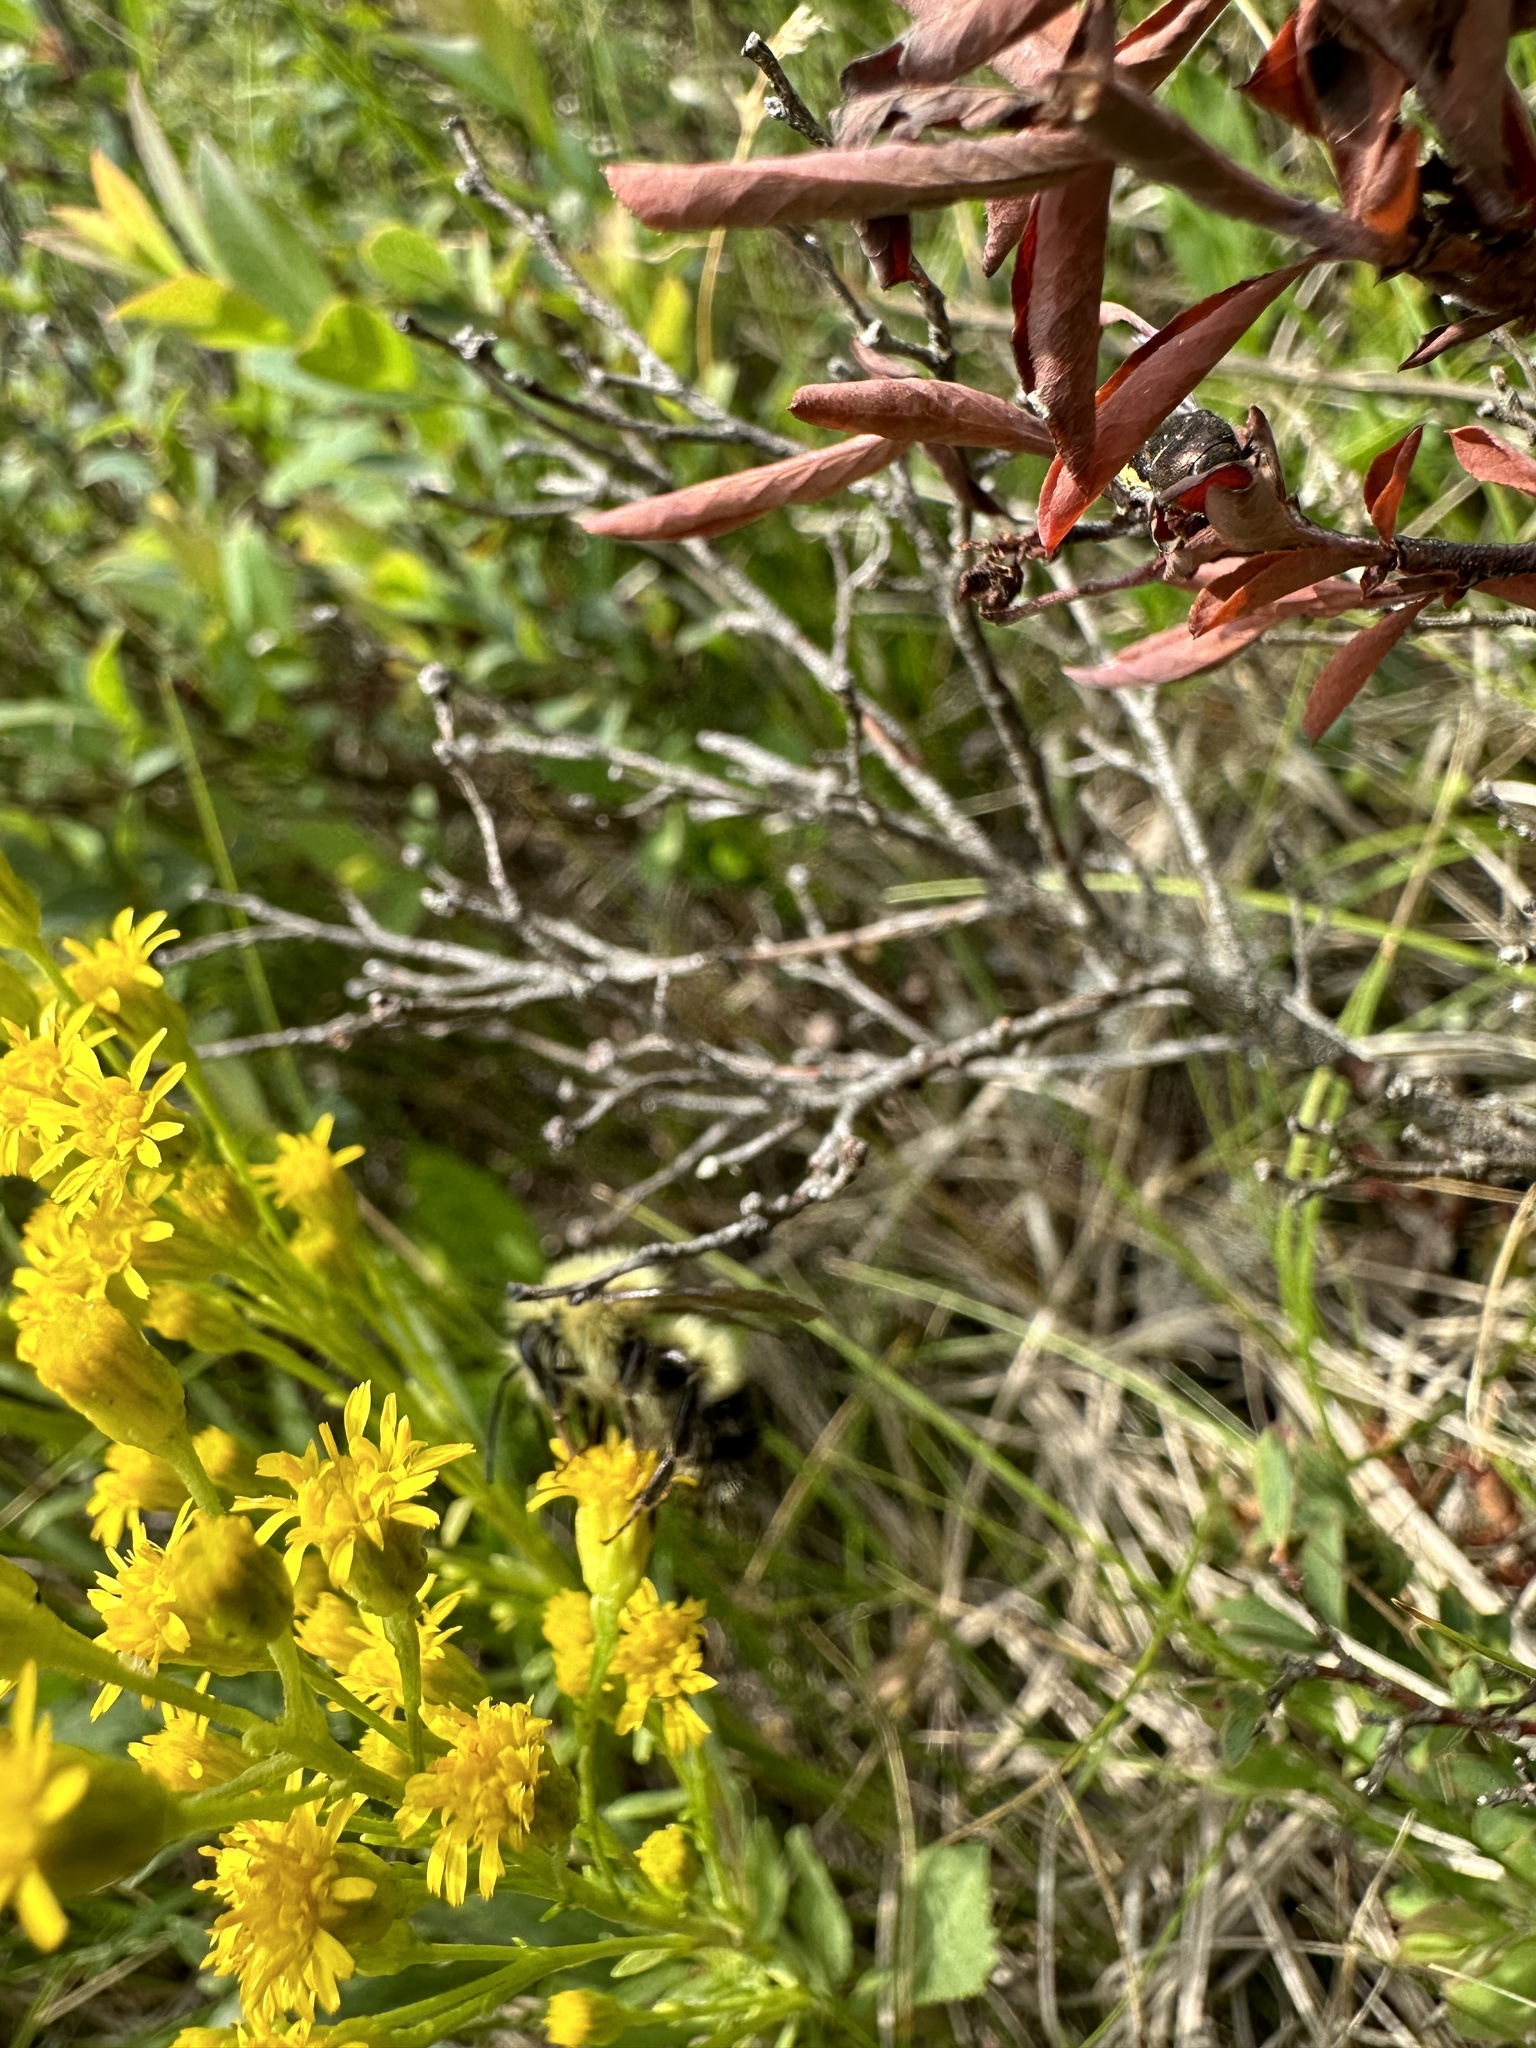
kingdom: Animalia
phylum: Arthropoda
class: Insecta
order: Hymenoptera
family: Apidae
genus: Pyrobombus
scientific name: Pyrobombus
